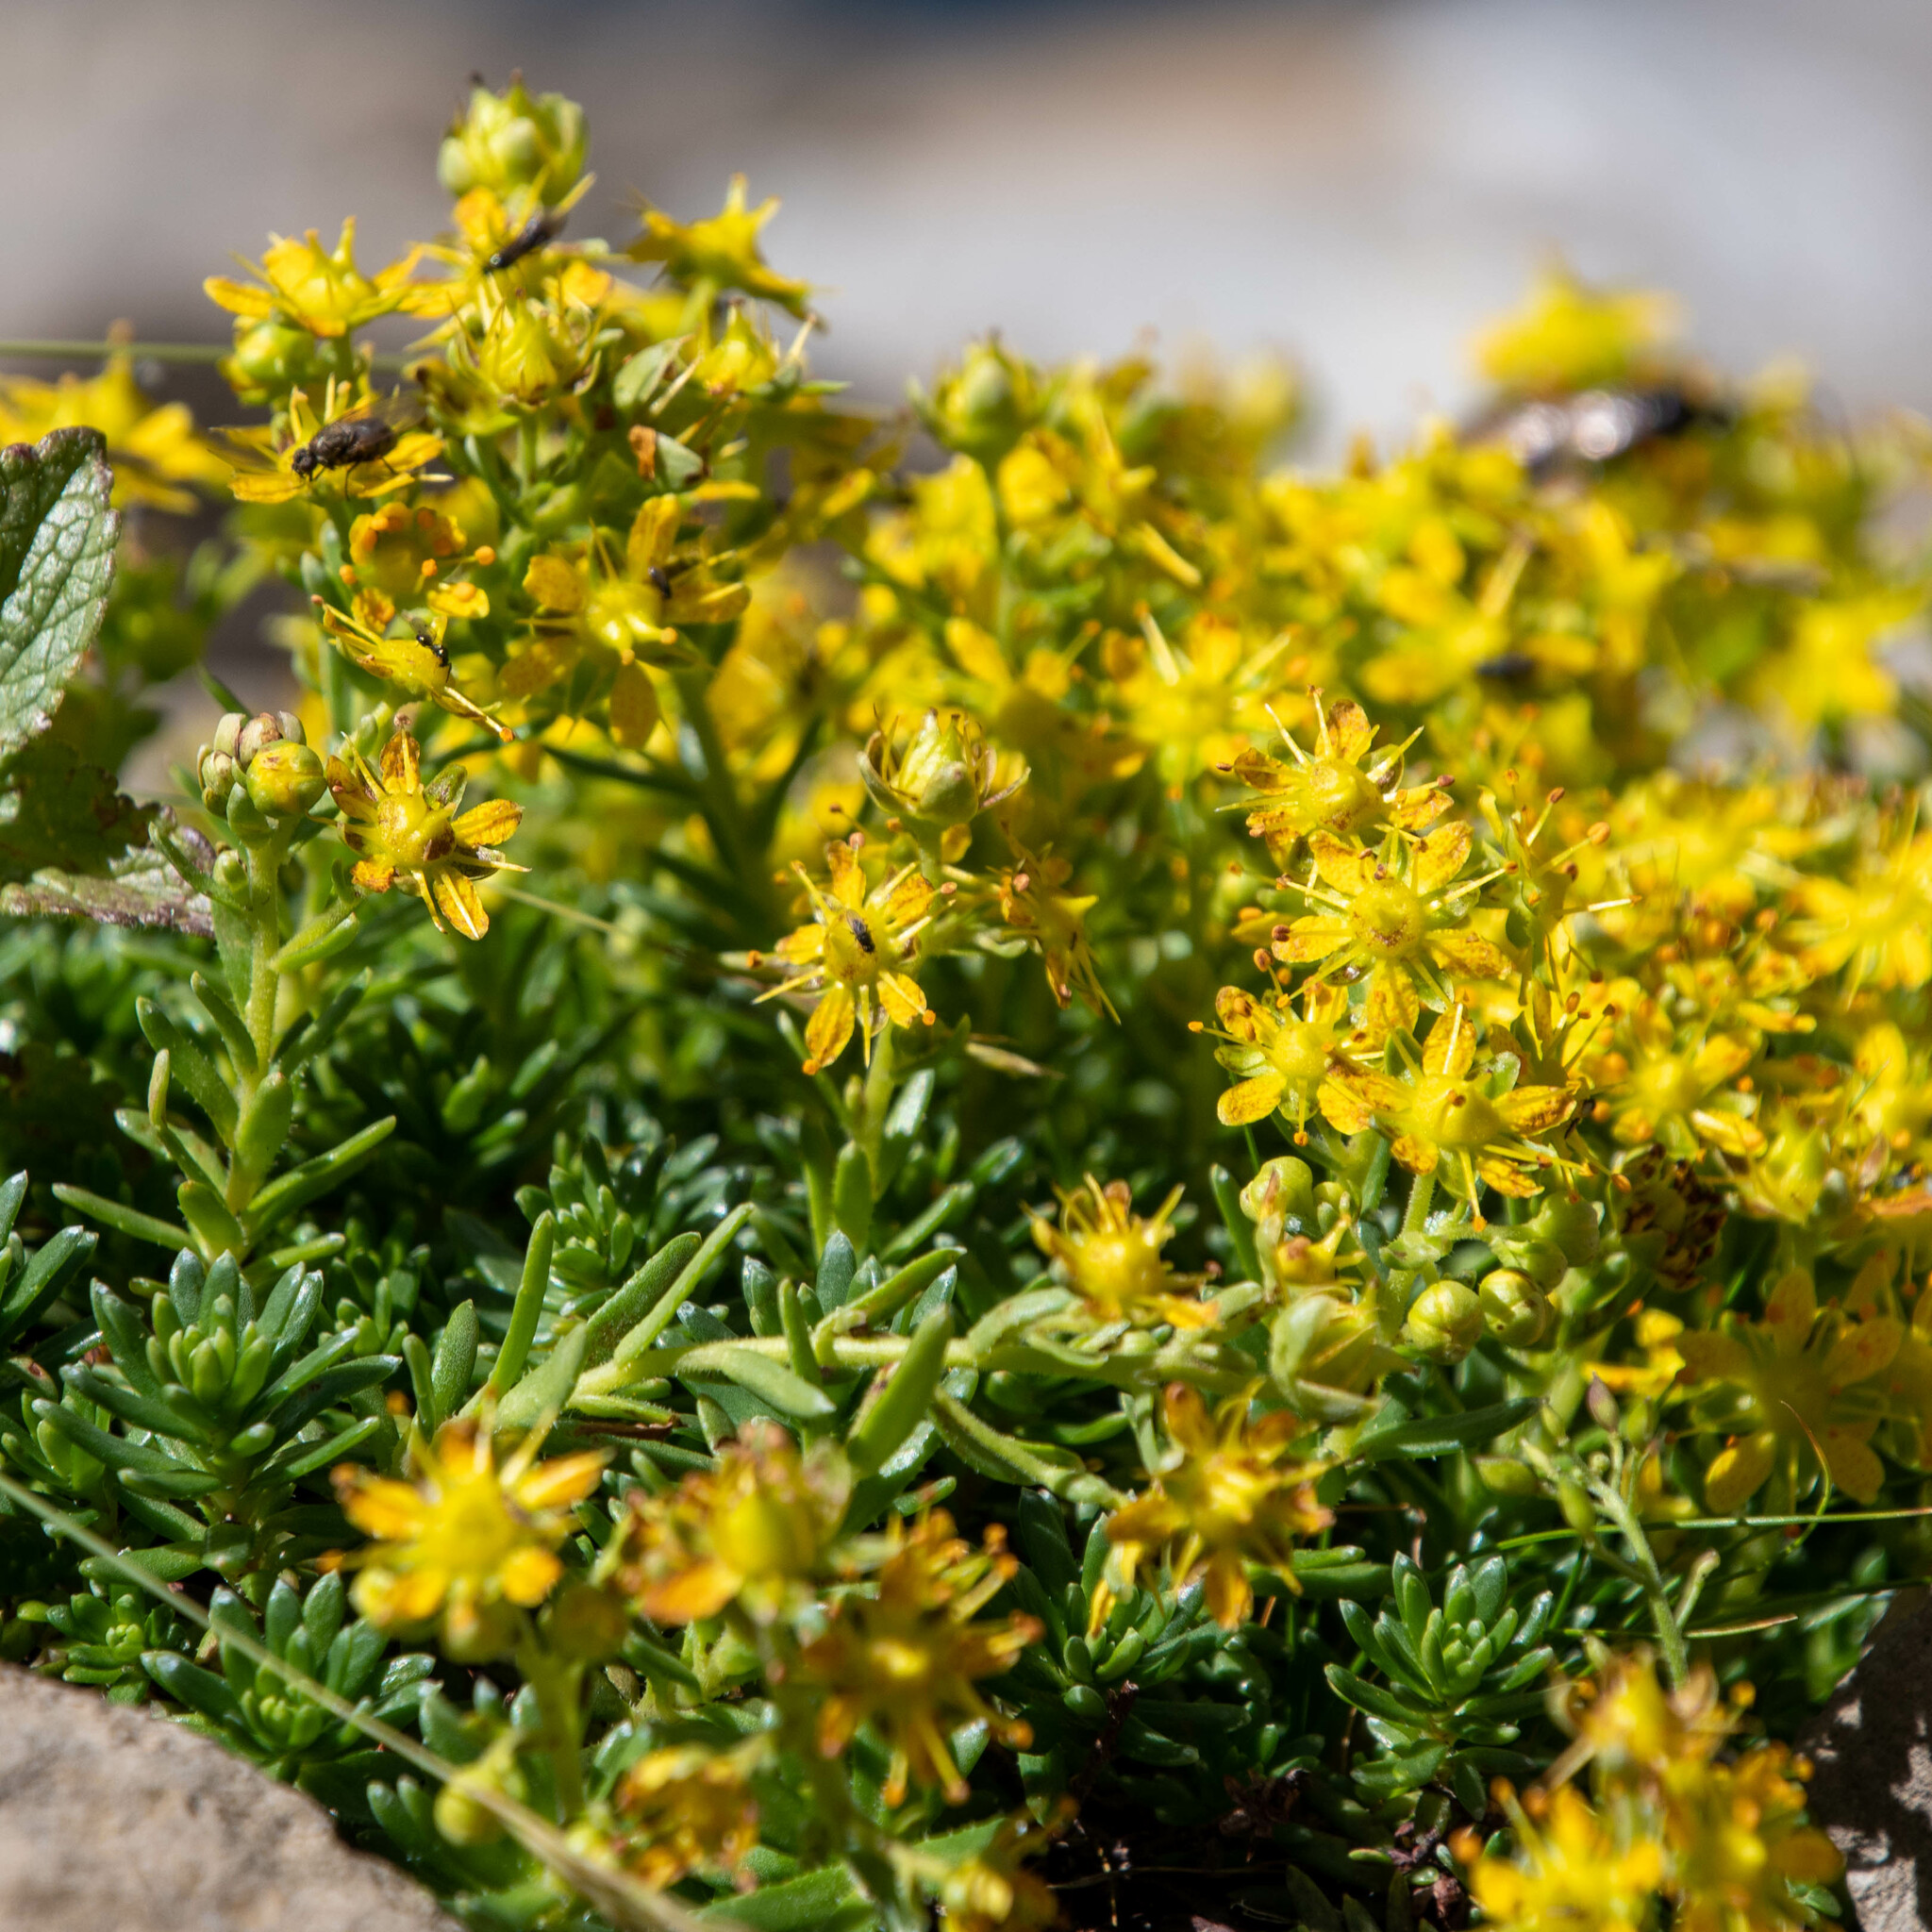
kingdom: Plantae
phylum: Tracheophyta
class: Magnoliopsida
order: Saxifragales
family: Saxifragaceae
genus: Saxifraga
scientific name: Saxifraga aizoides
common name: Yellow mountain saxifrage
